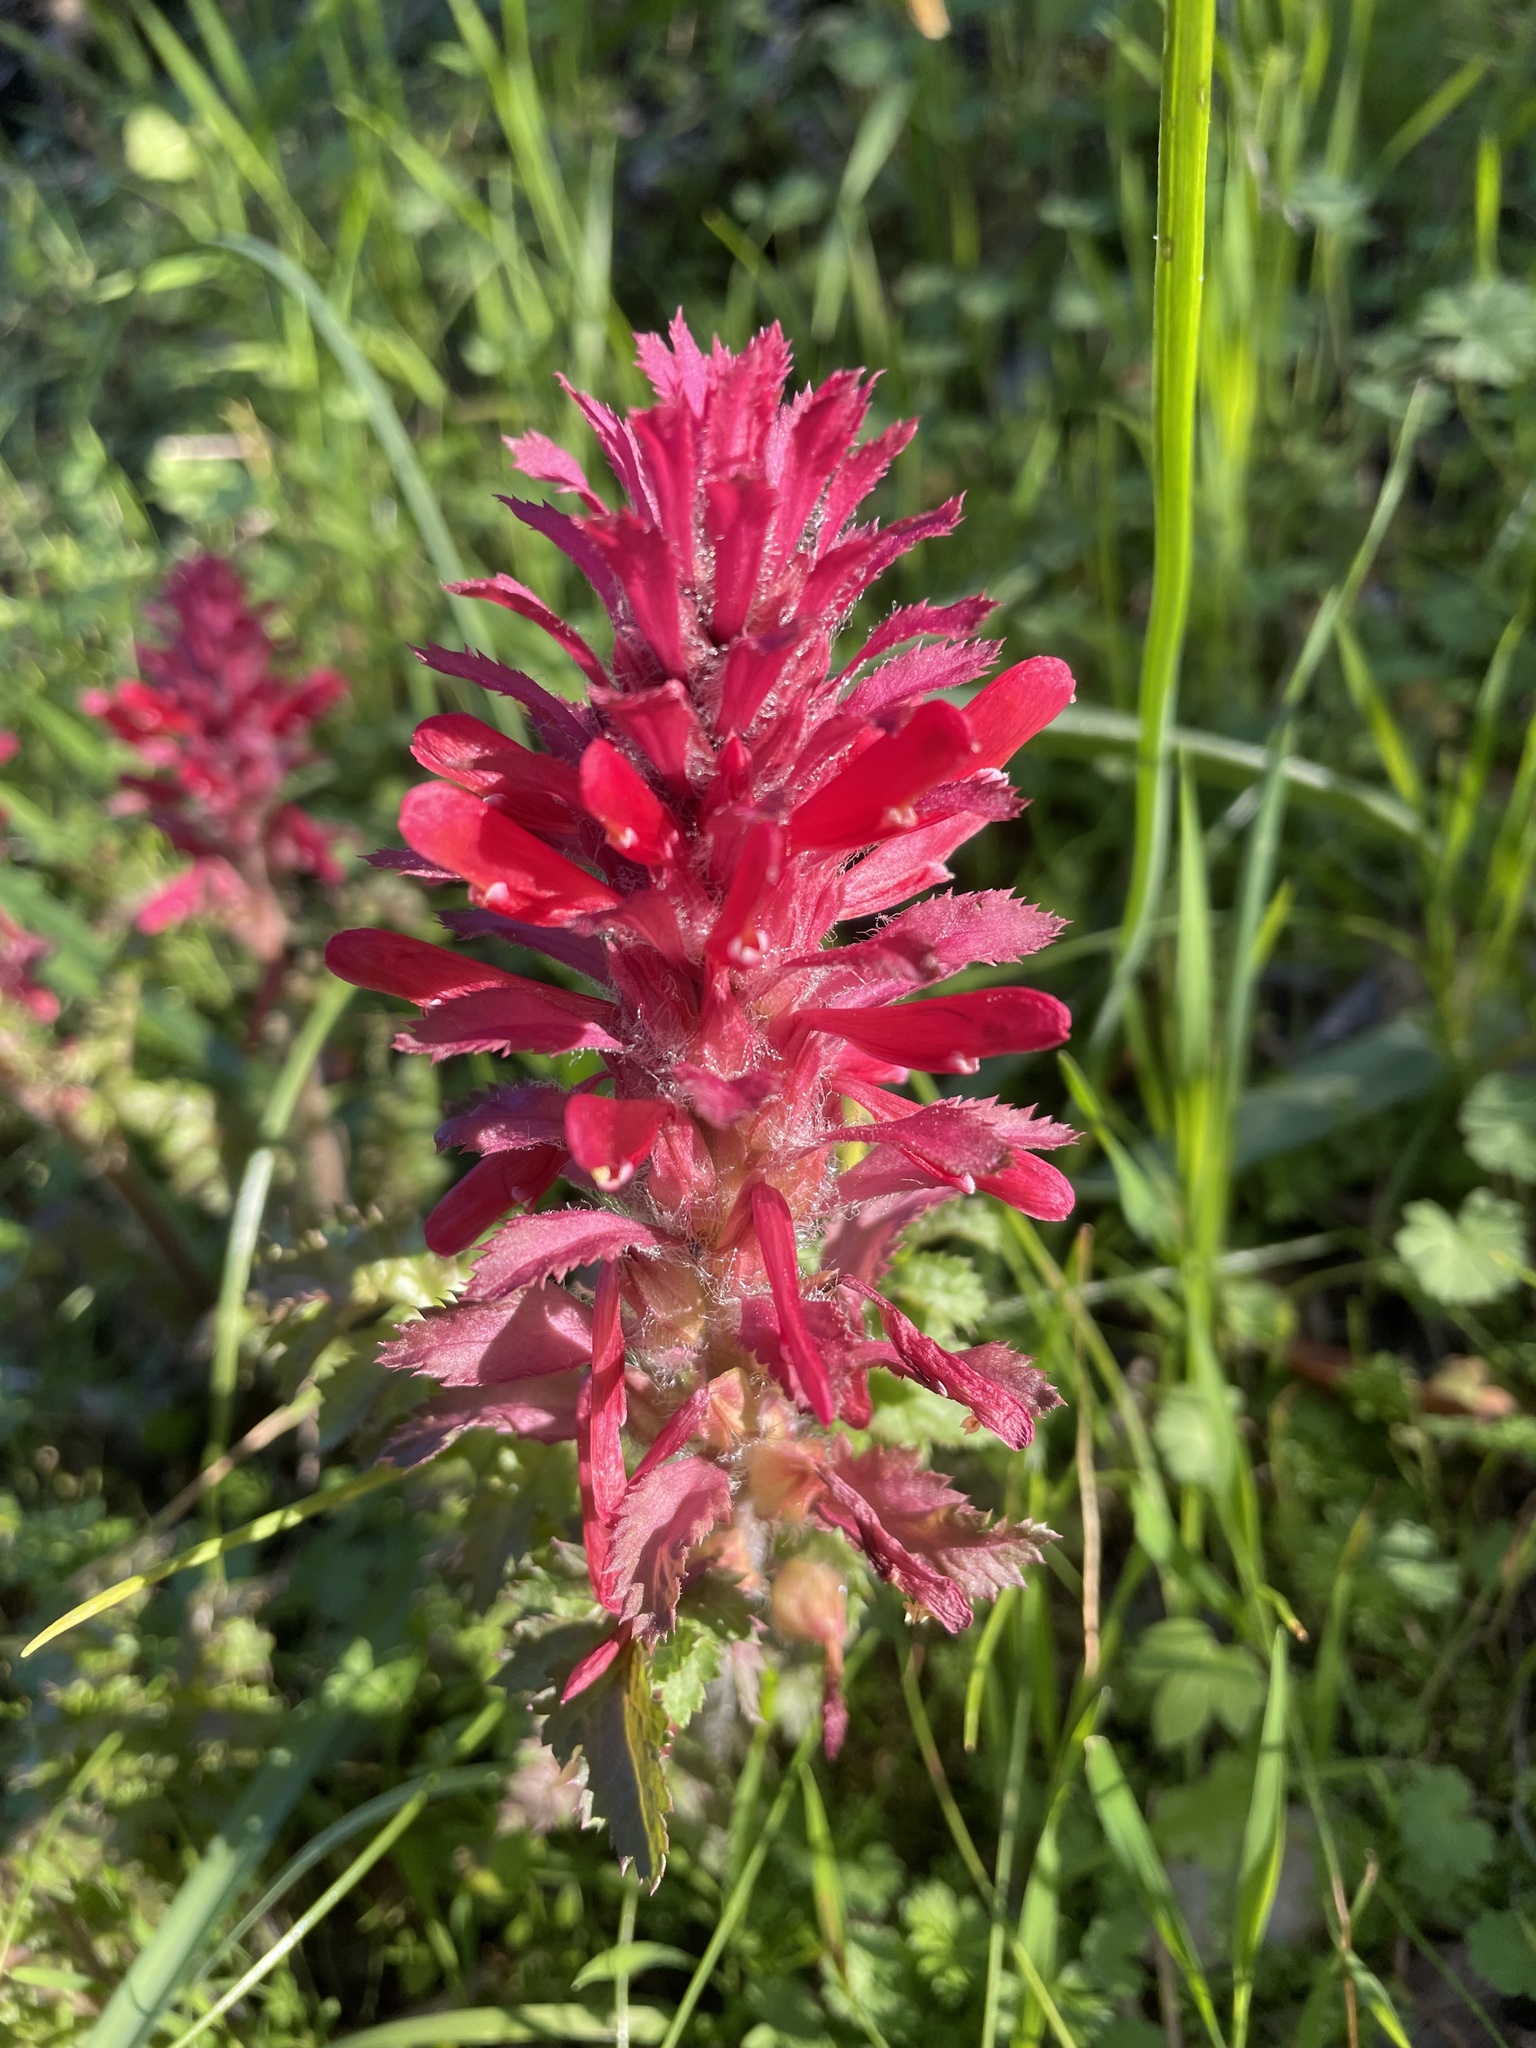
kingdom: Plantae
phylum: Tracheophyta
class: Magnoliopsida
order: Lamiales
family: Orobanchaceae
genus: Pedicularis
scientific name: Pedicularis densiflora
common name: Indian warrior
